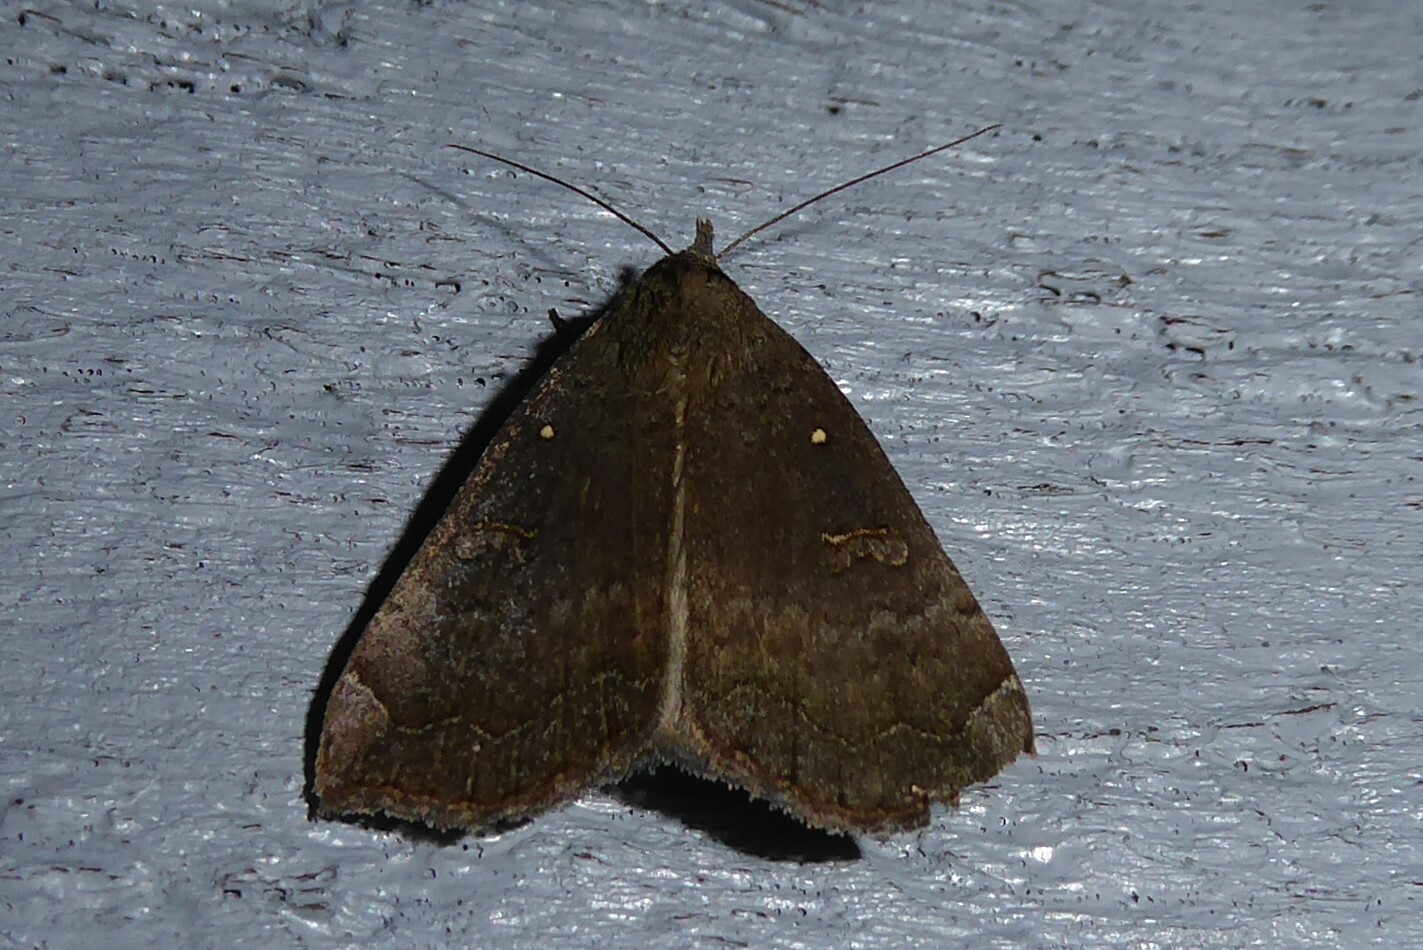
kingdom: Animalia
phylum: Arthropoda
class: Insecta
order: Lepidoptera
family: Erebidae
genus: Rhapsa
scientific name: Rhapsa scotosialis
